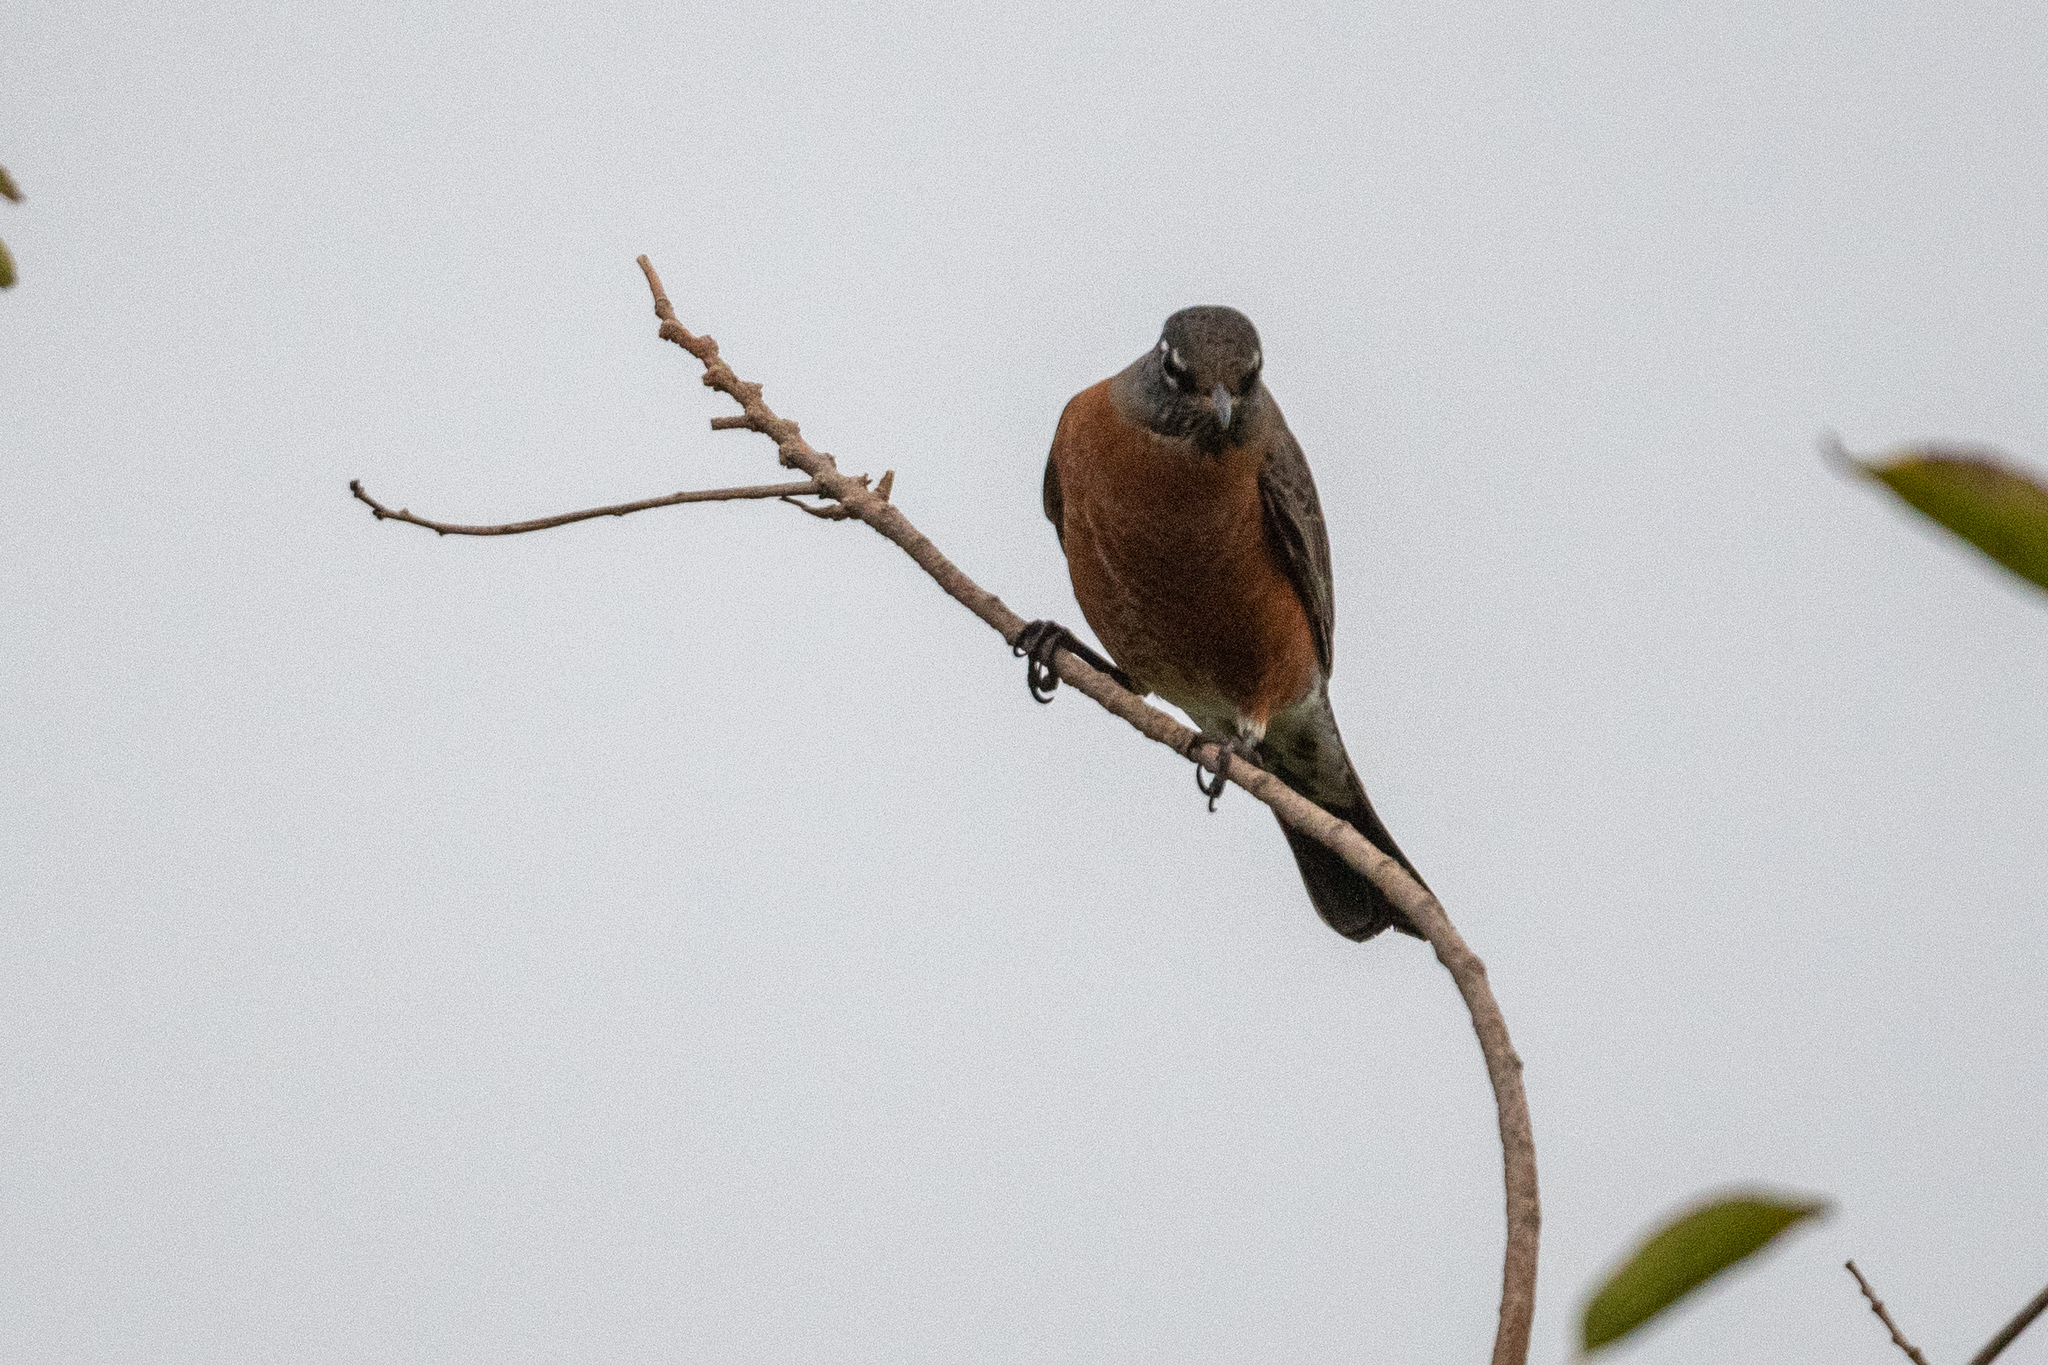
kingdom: Animalia
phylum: Chordata
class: Aves
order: Passeriformes
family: Turdidae
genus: Turdus
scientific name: Turdus migratorius
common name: American robin
